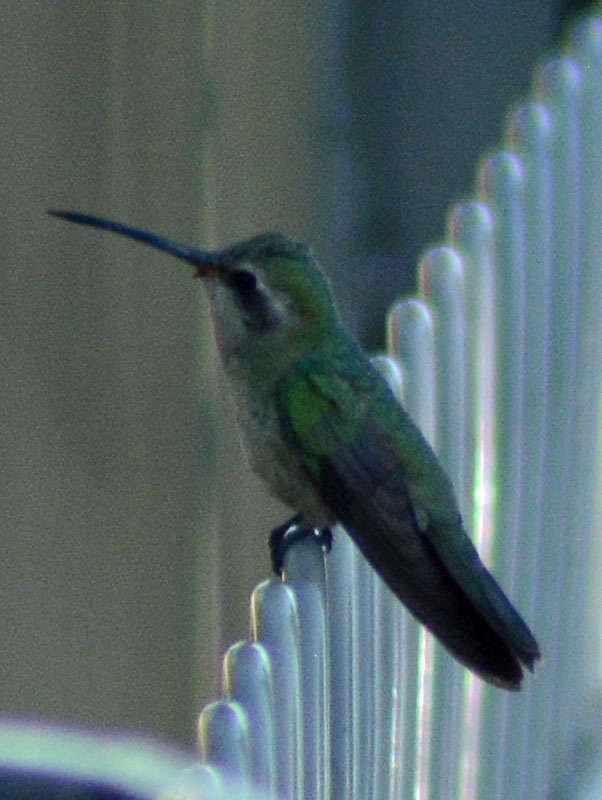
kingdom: Animalia
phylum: Chordata
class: Aves
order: Apodiformes
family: Trochilidae
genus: Cynanthus
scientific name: Cynanthus latirostris
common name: Broad-billed hummingbird
